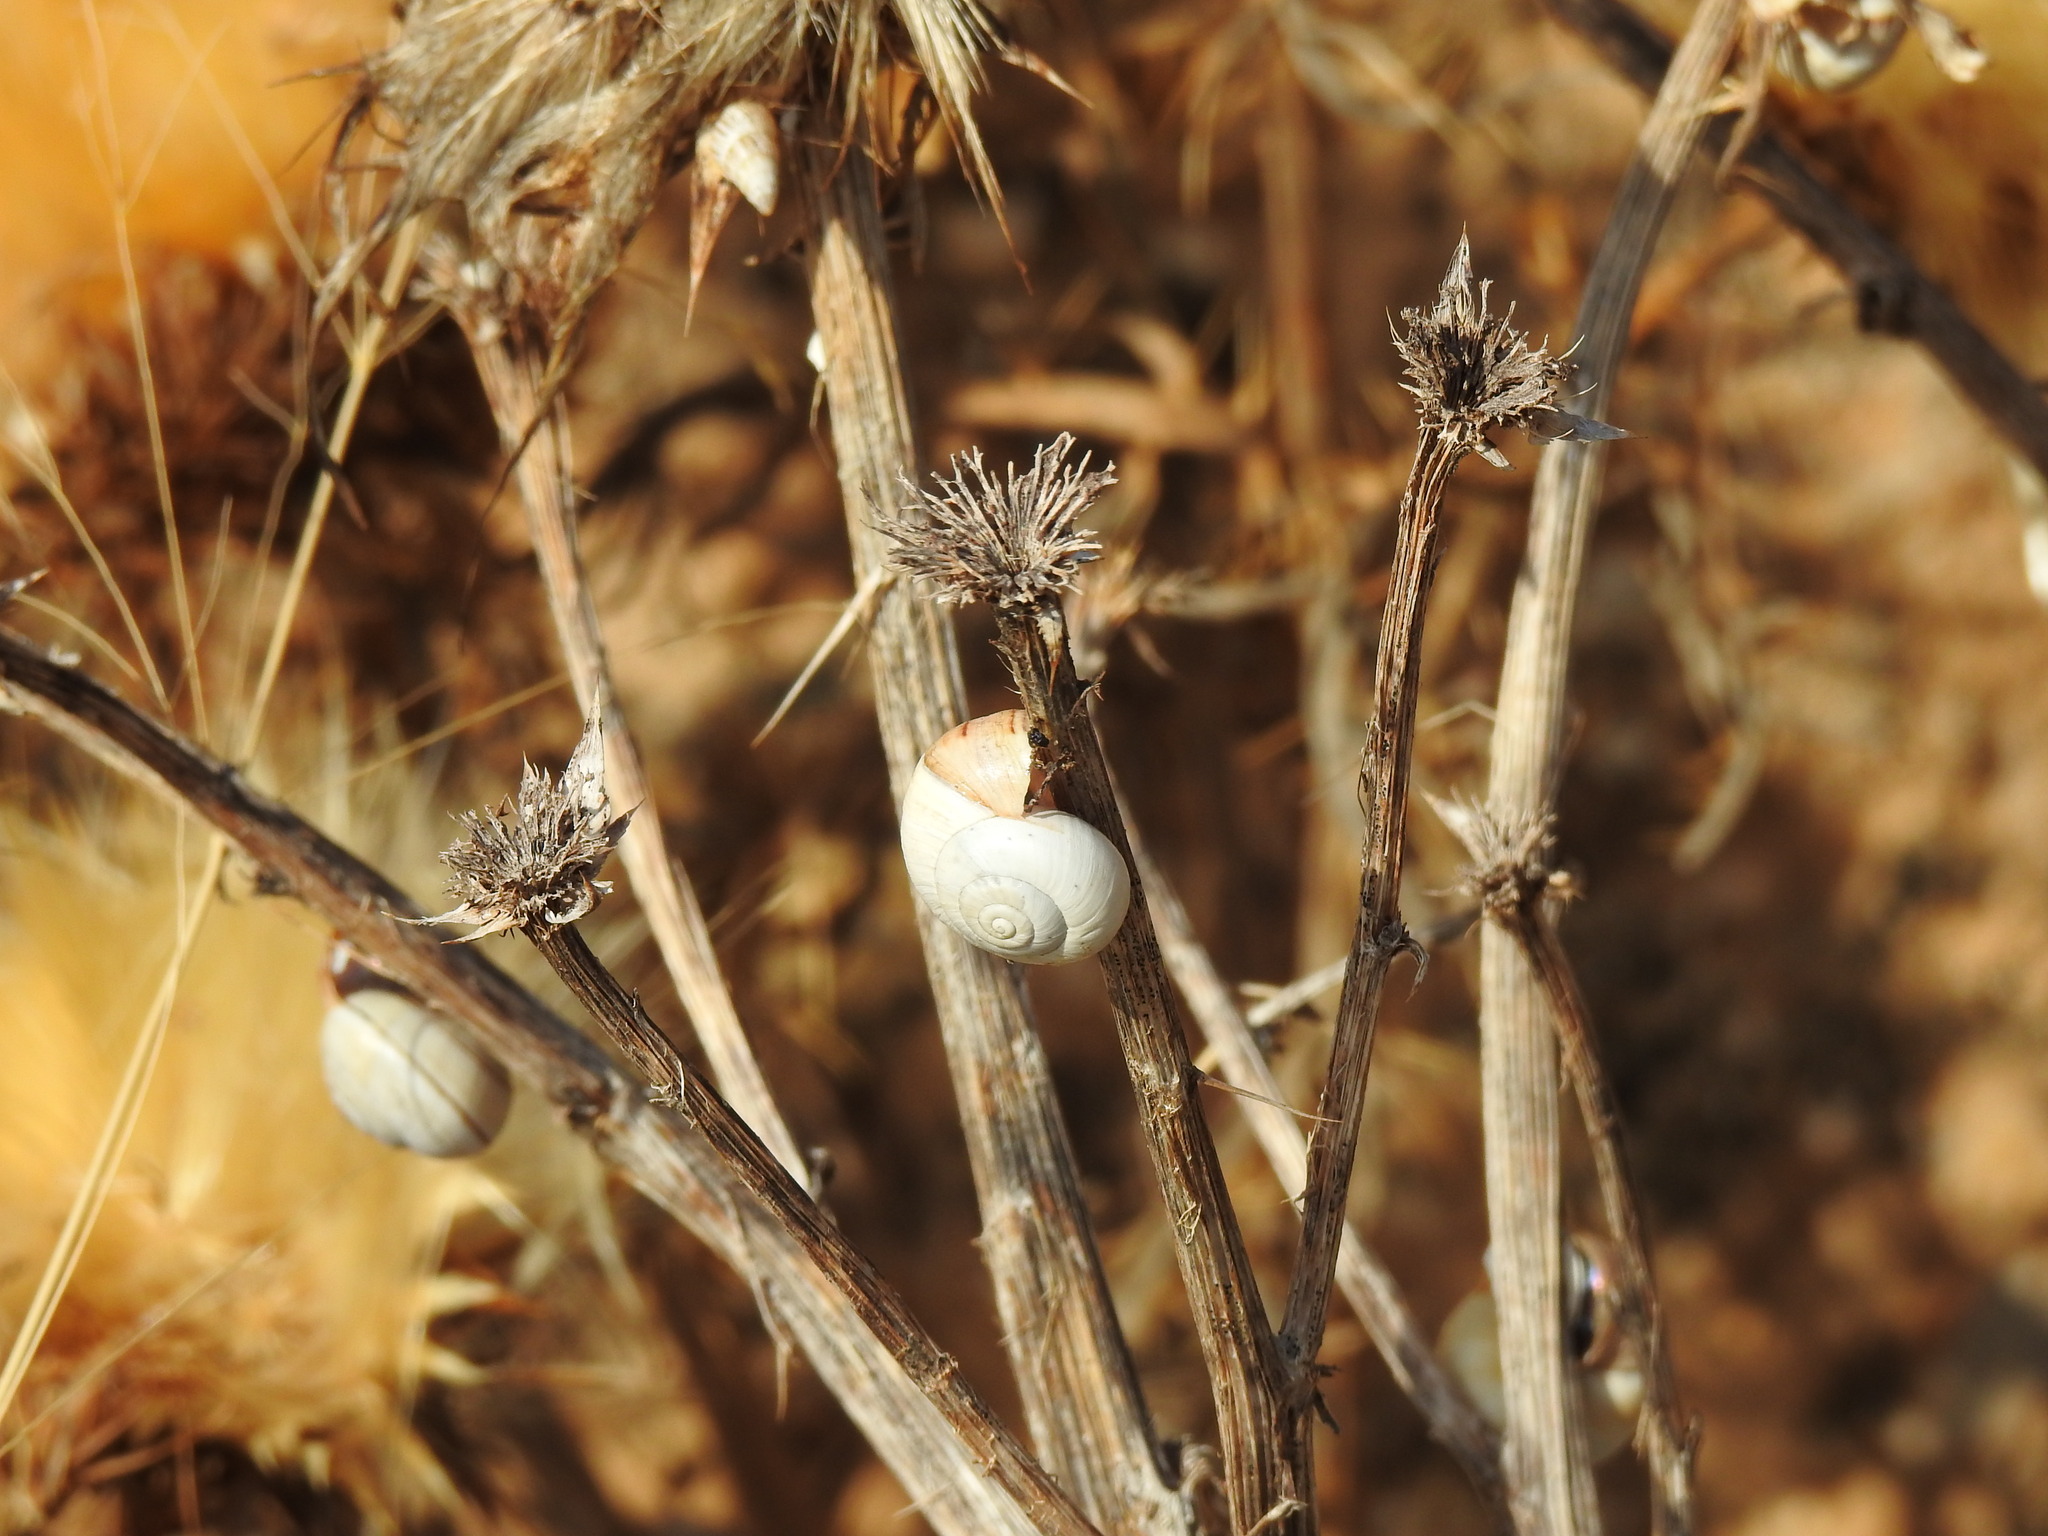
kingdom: Animalia
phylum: Mollusca
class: Gastropoda
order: Stylommatophora
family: Helicidae
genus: Theba
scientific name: Theba pisana
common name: White snail
